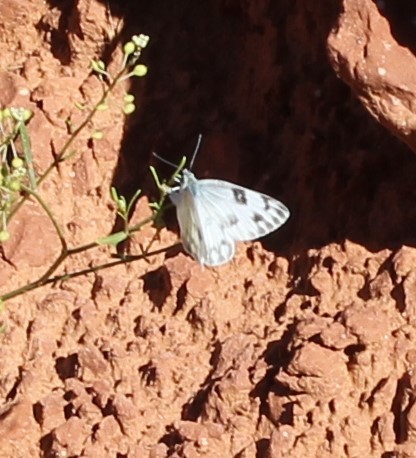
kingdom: Animalia
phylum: Arthropoda
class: Insecta
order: Lepidoptera
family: Pieridae
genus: Pontia
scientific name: Pontia protodice
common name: Checkered white
